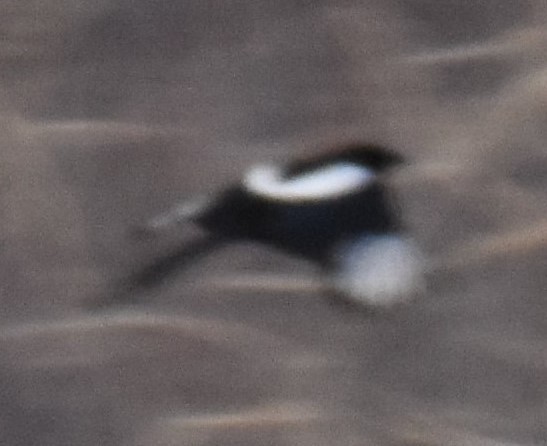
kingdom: Animalia
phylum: Chordata
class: Aves
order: Passeriformes
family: Corvidae
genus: Pica
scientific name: Pica hudsonia
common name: Black-billed magpie
